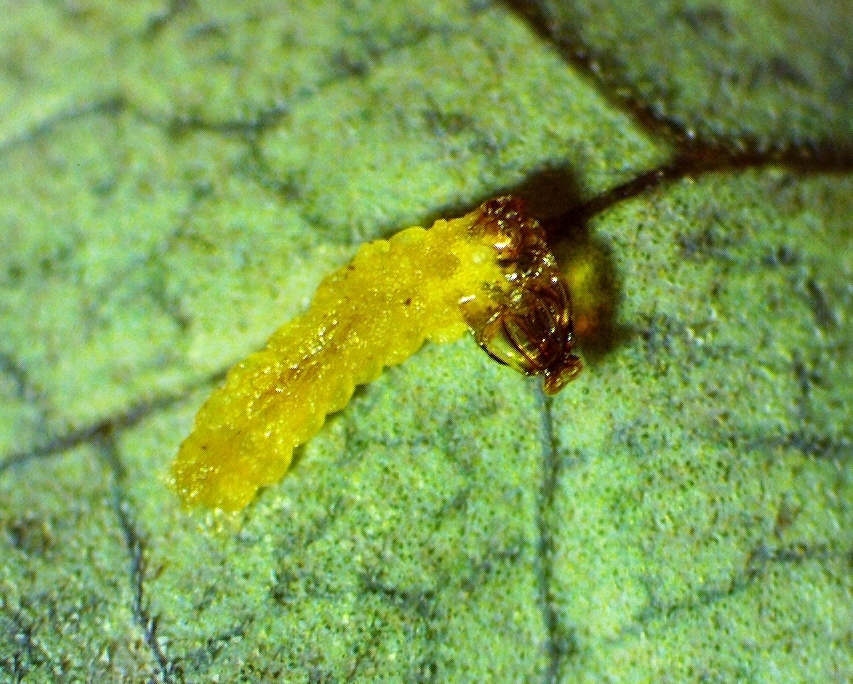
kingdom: Animalia
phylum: Arthropoda
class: Insecta
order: Lepidoptera
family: Gracillariidae
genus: Marmara
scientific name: Marmara smilacisella
